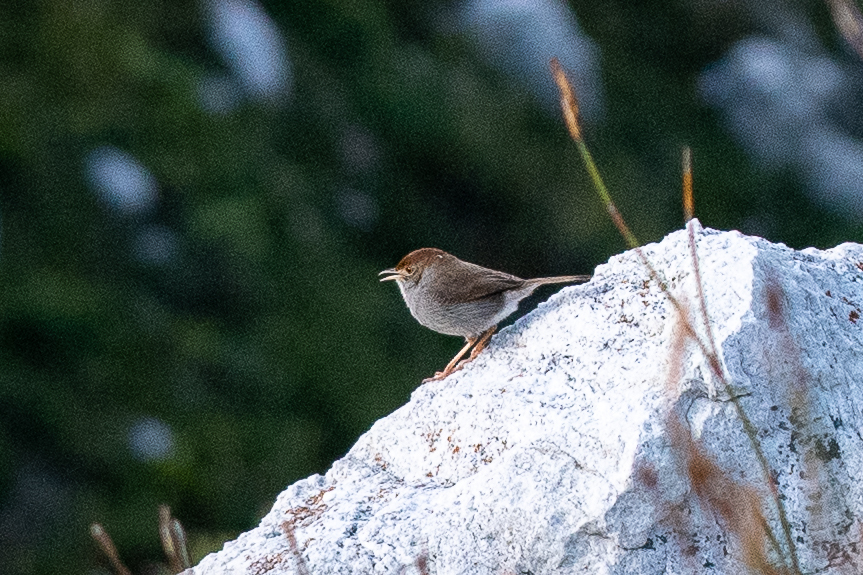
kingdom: Animalia
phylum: Chordata
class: Aves
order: Passeriformes
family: Cisticolidae
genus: Cisticola
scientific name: Cisticola fulvicapilla
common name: Neddicky
